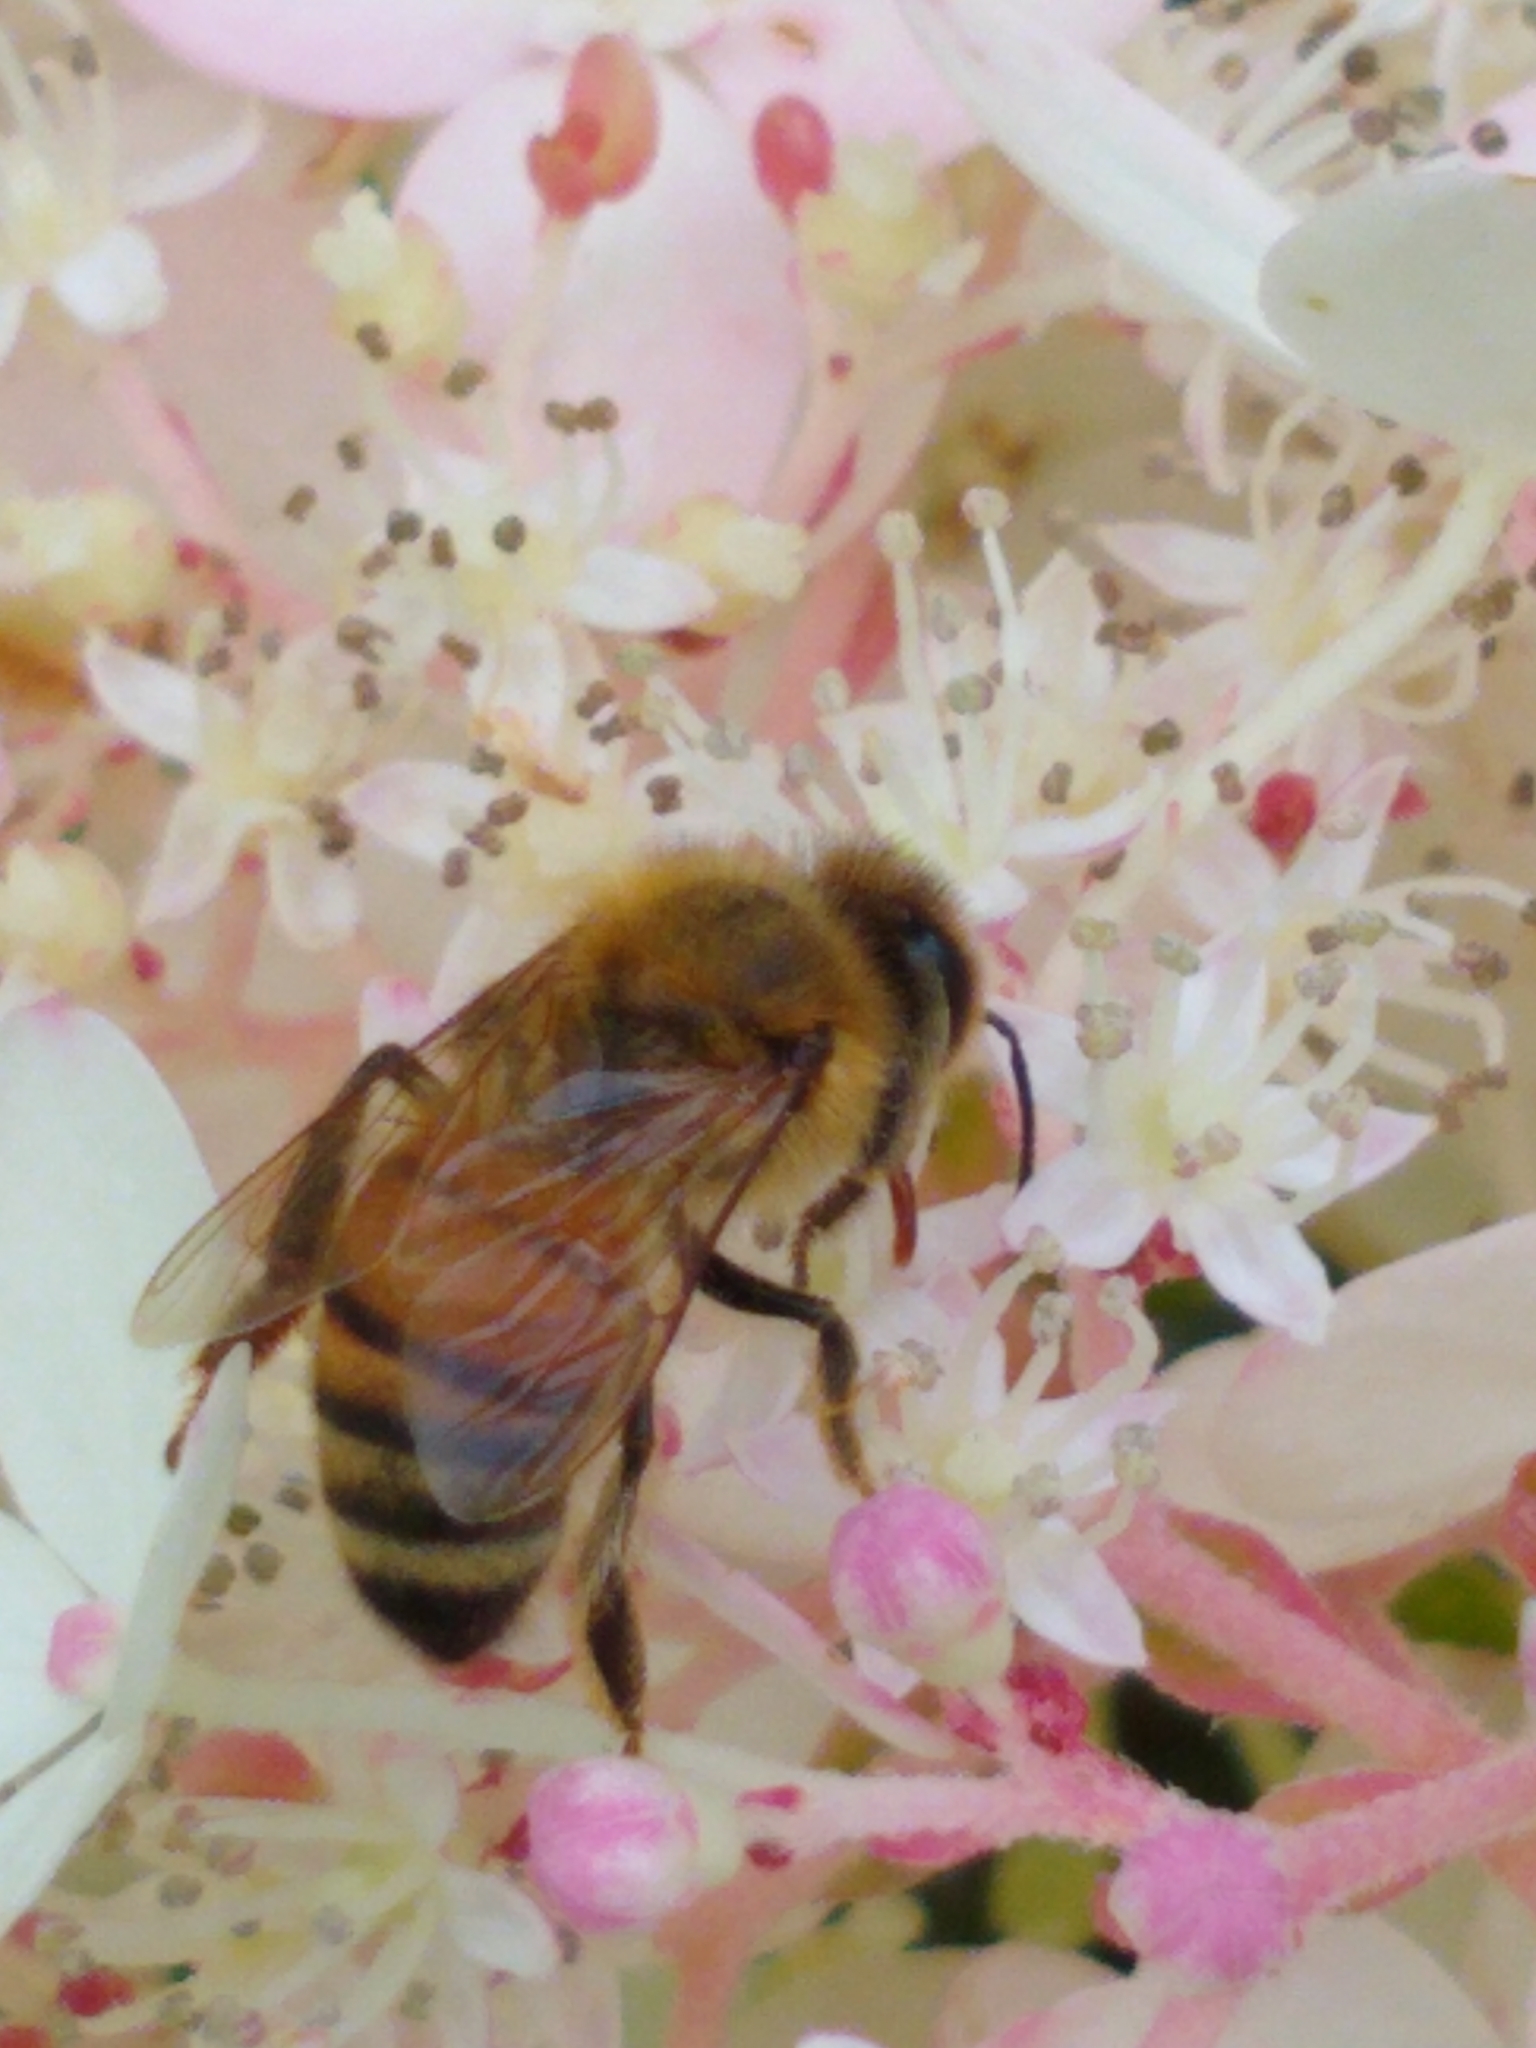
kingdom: Animalia
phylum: Arthropoda
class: Insecta
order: Hymenoptera
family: Apidae
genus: Apis
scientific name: Apis mellifera
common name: Honey bee
